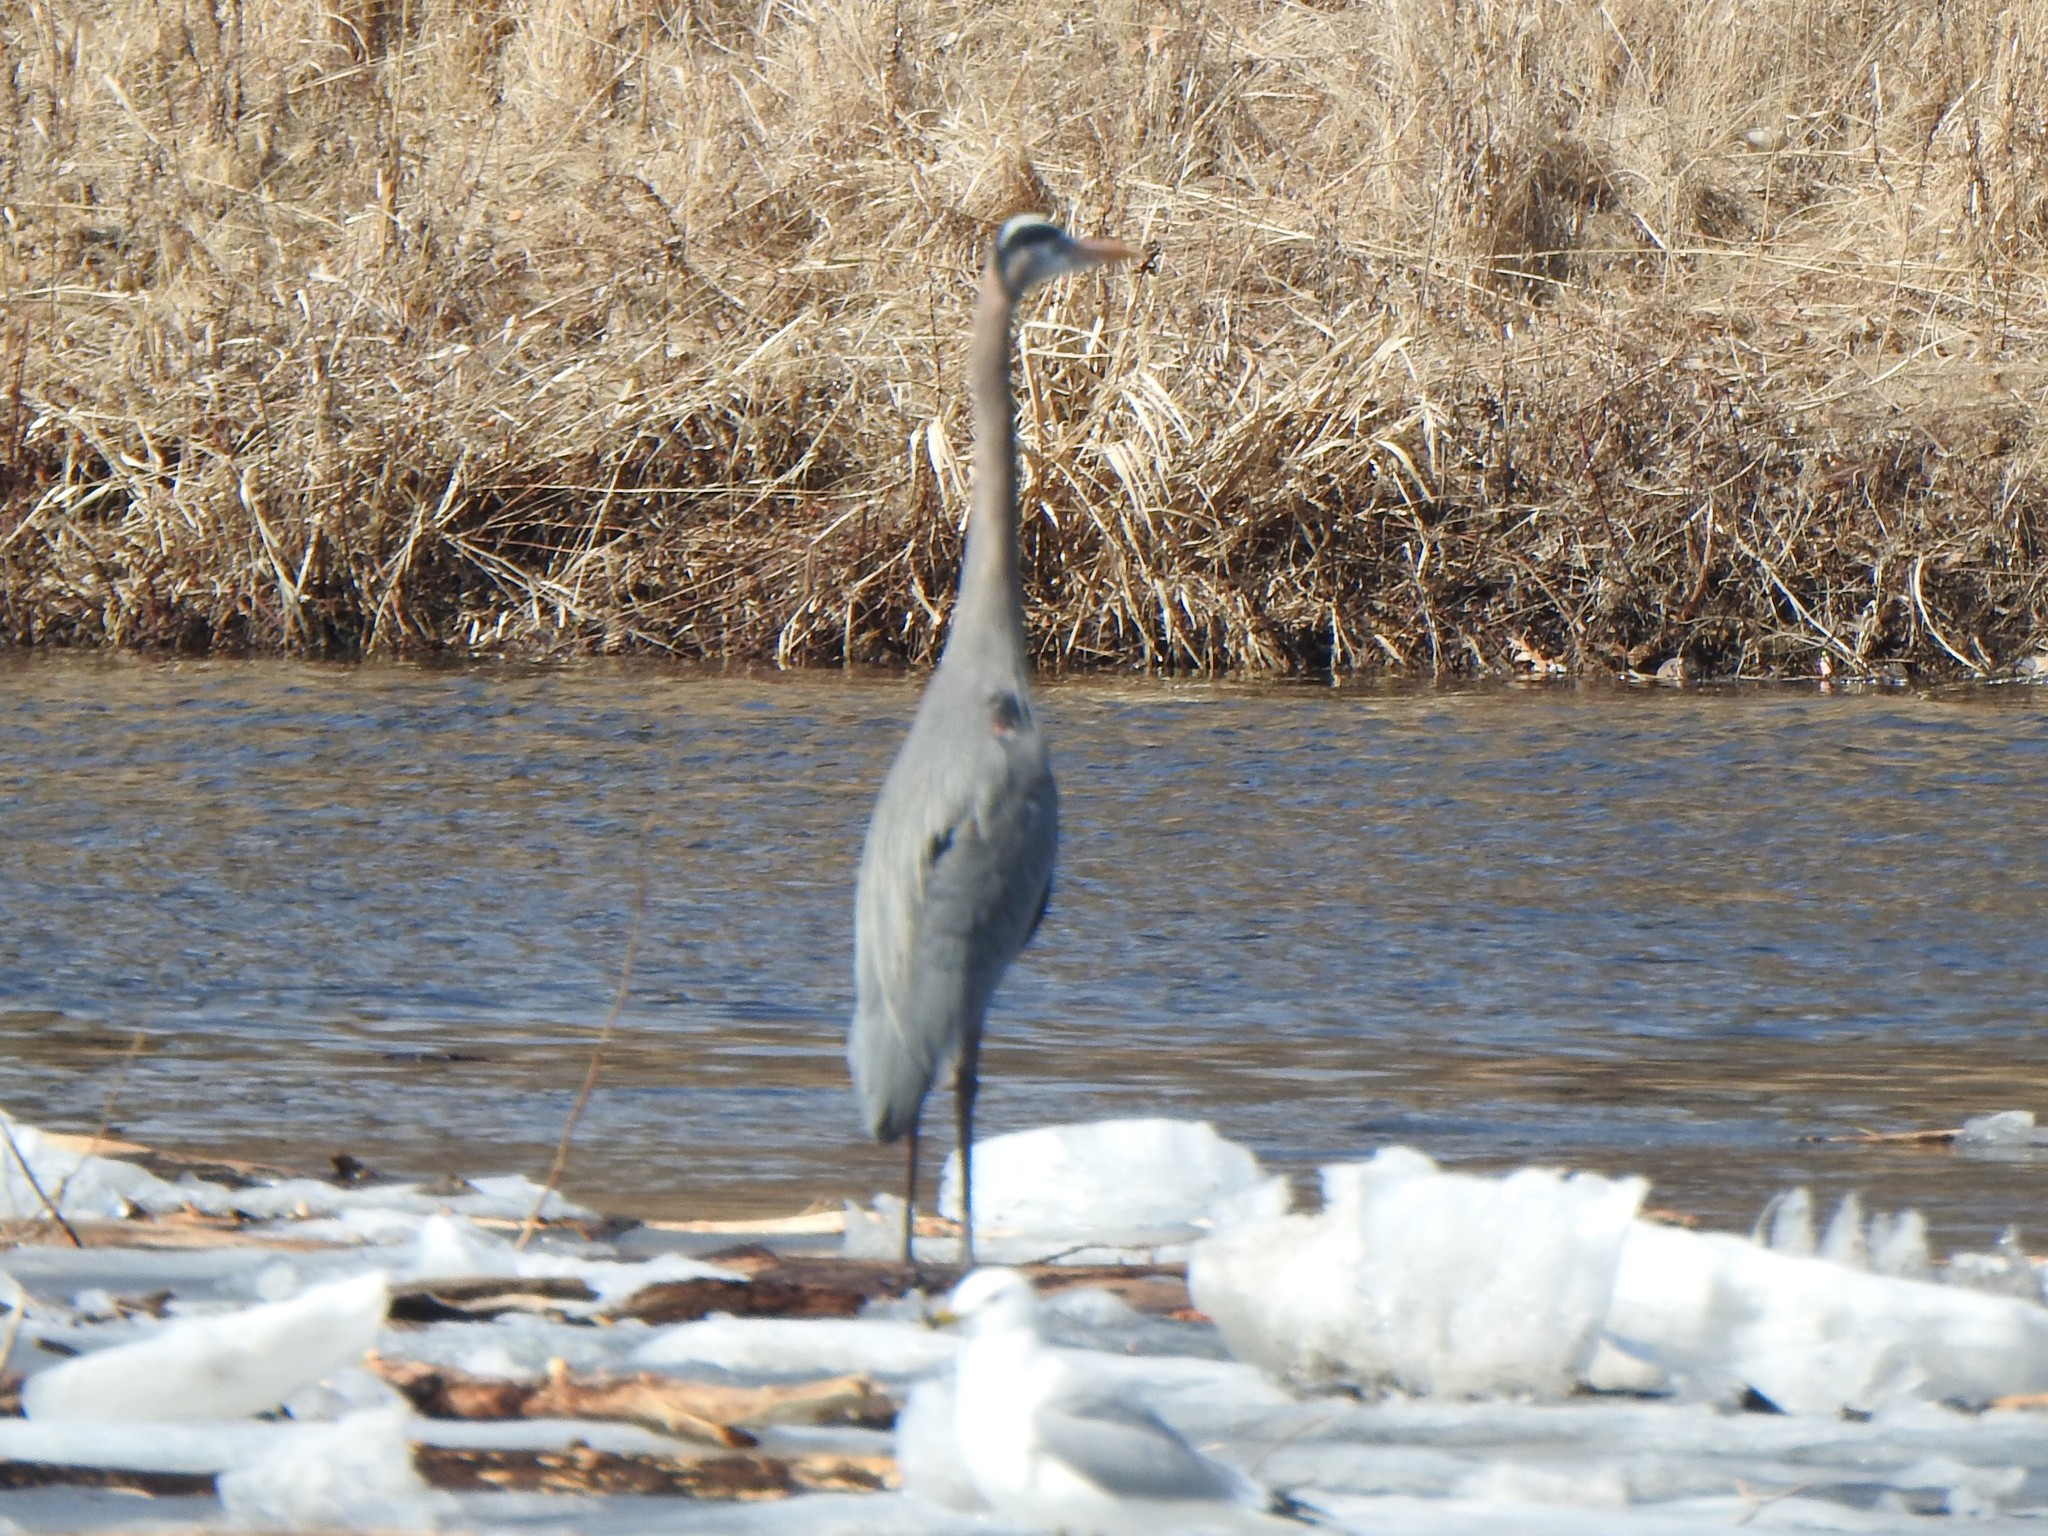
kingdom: Animalia
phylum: Chordata
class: Aves
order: Pelecaniformes
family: Ardeidae
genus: Ardea
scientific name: Ardea herodias
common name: Great blue heron
